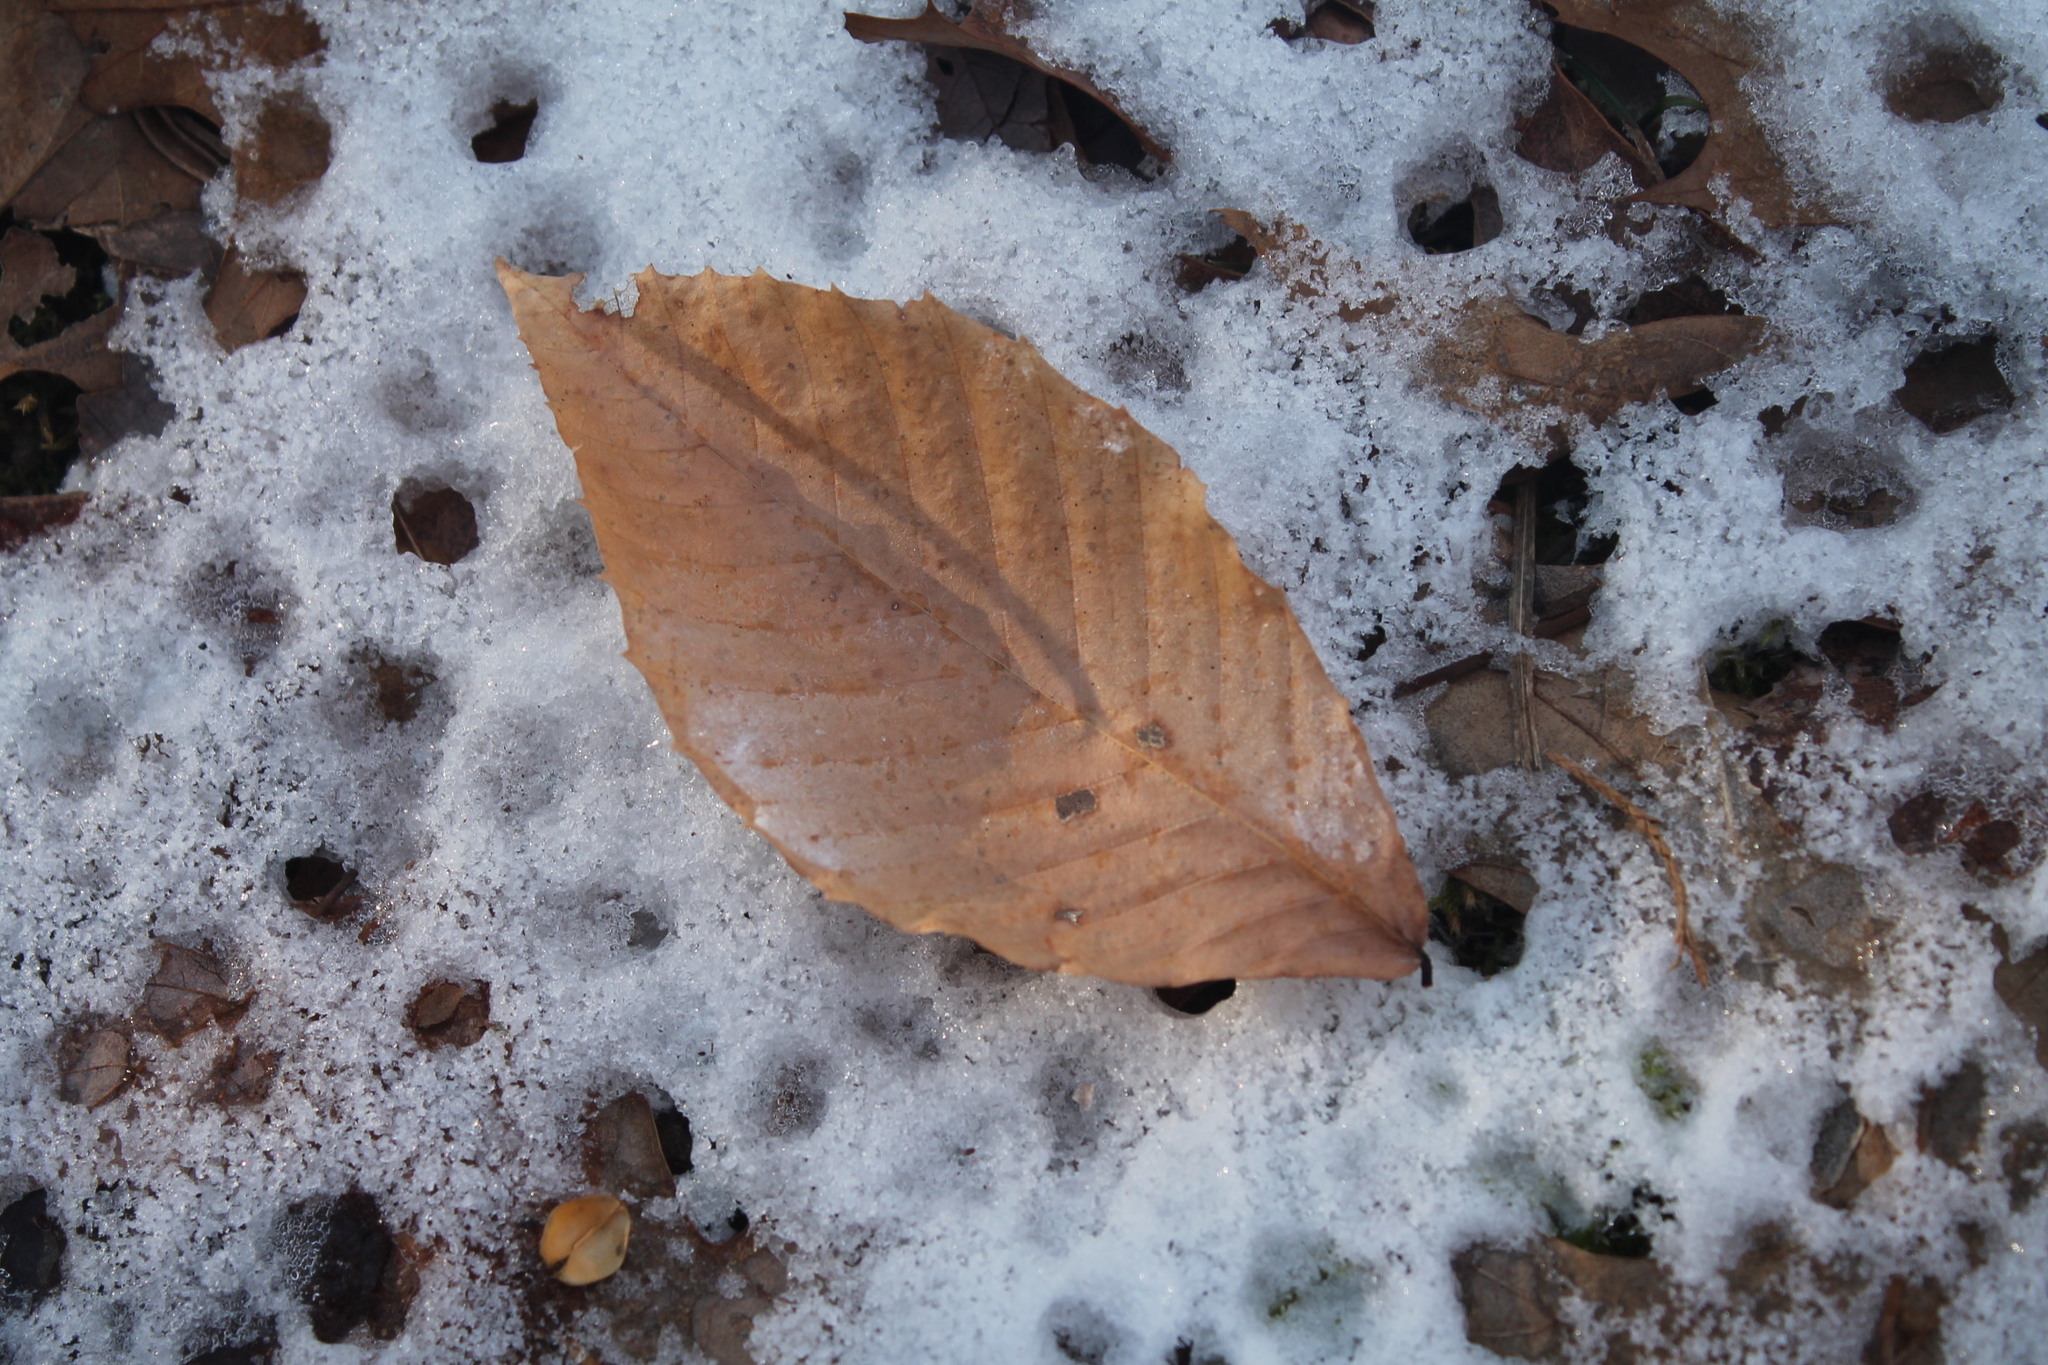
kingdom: Plantae
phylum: Tracheophyta
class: Magnoliopsida
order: Fagales
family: Fagaceae
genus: Fagus
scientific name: Fagus grandifolia
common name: American beech
